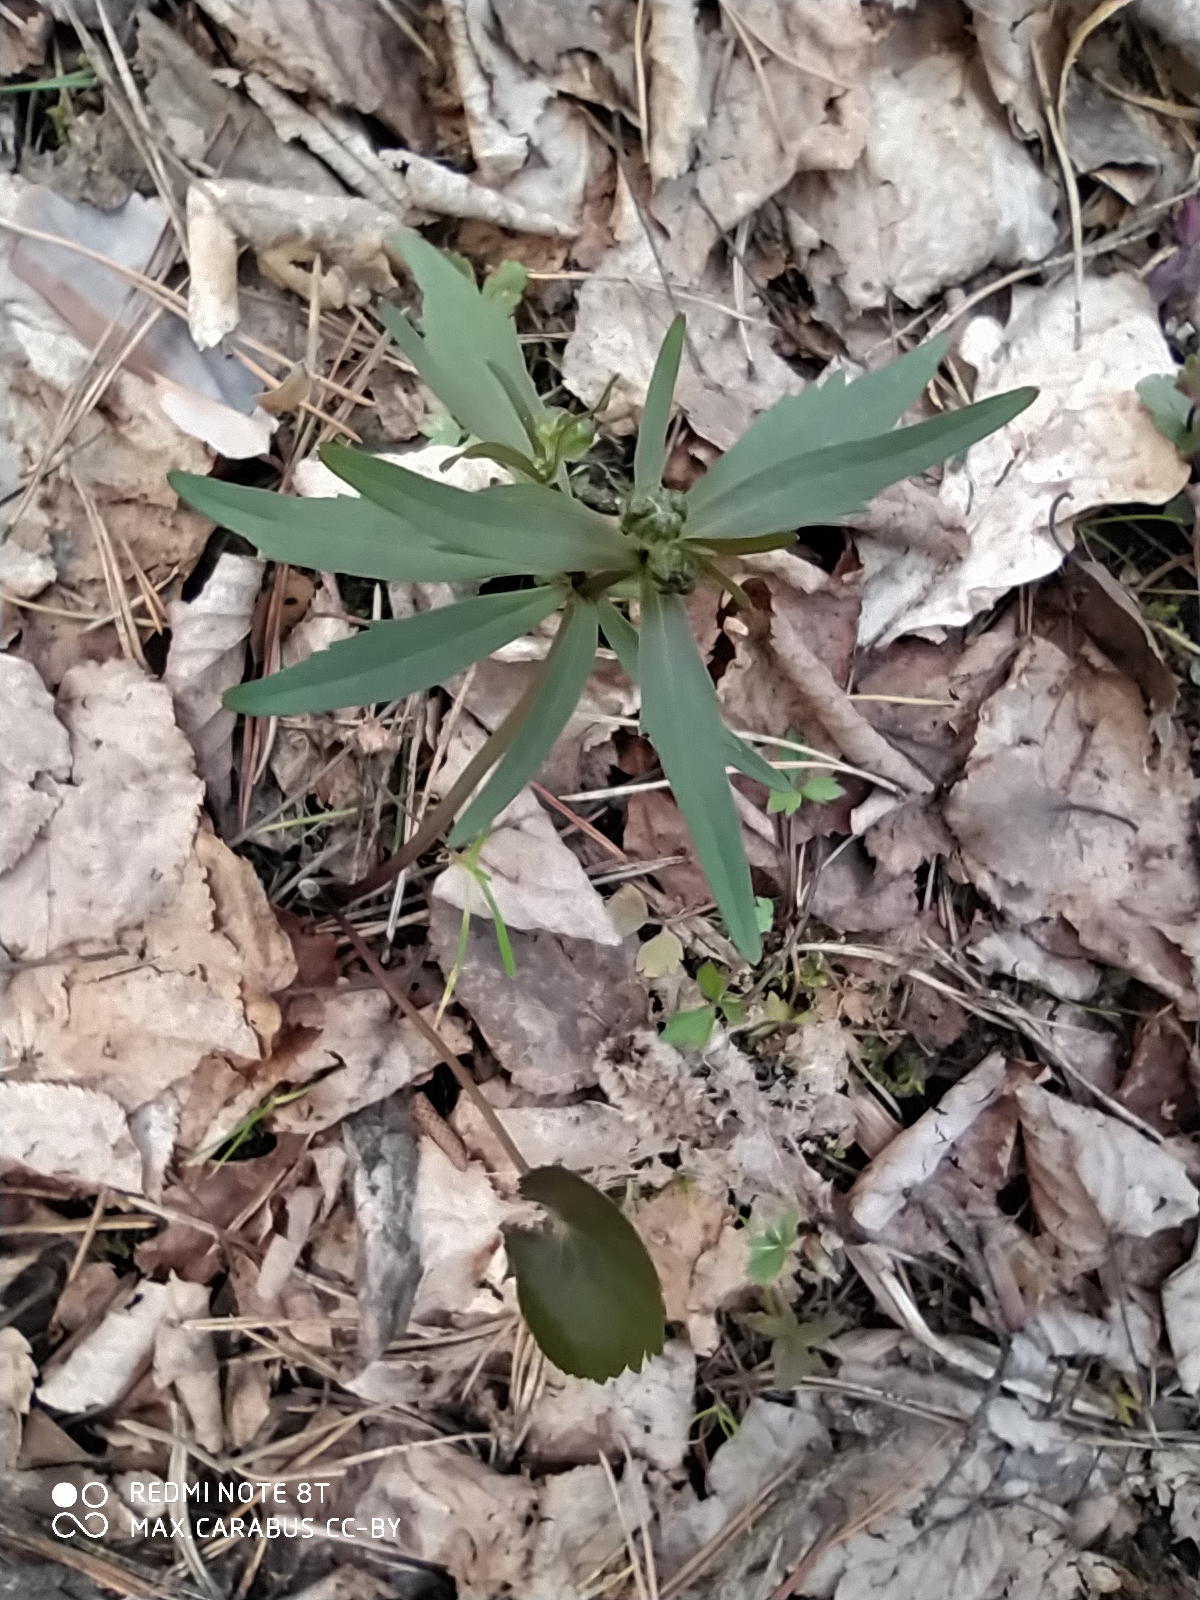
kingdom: Plantae
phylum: Tracheophyta
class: Magnoliopsida
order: Ranunculales
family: Ranunculaceae
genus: Ranunculus
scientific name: Ranunculus cassubicus
